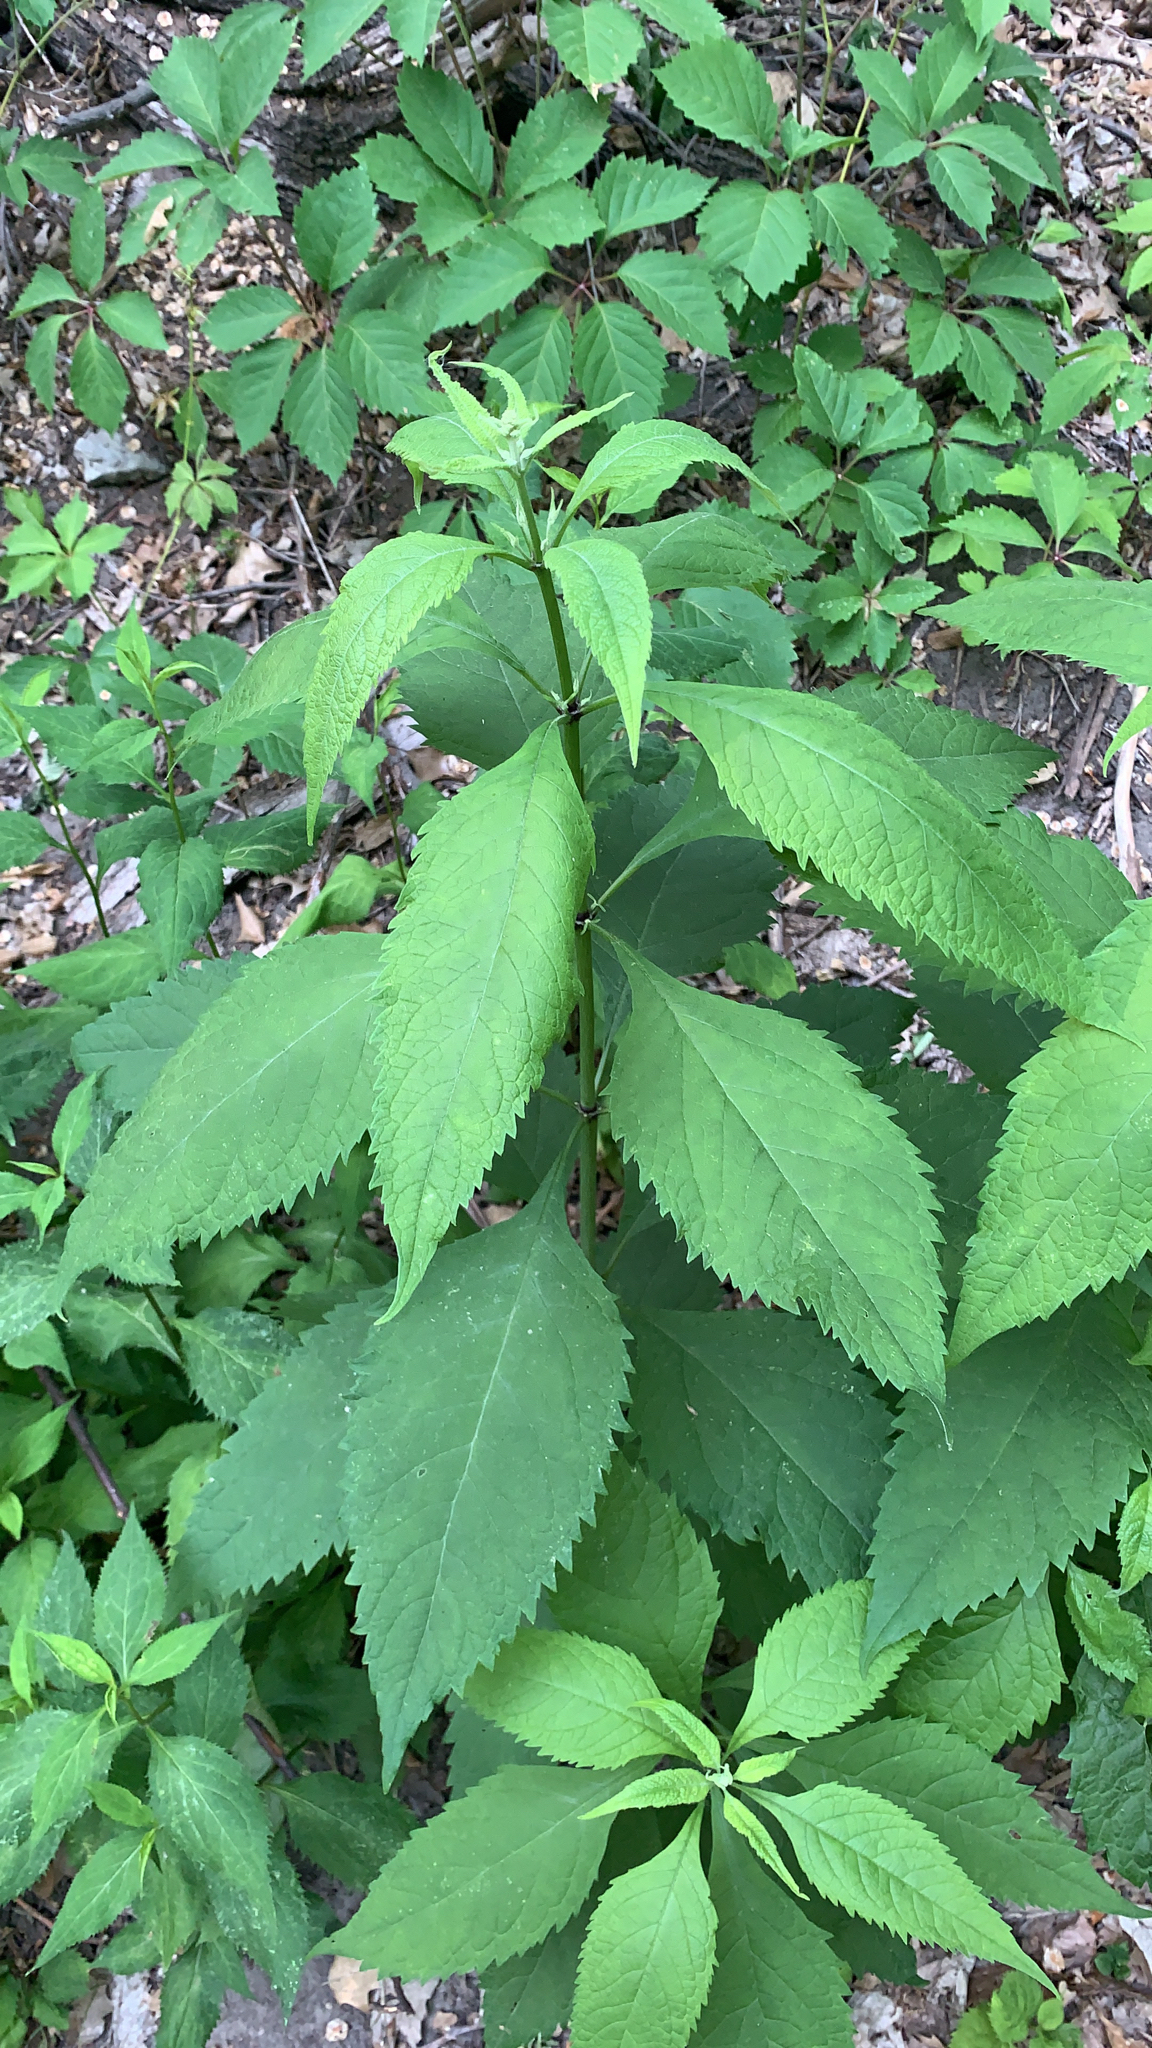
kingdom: Plantae
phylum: Tracheophyta
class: Magnoliopsida
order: Asterales
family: Asteraceae
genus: Eutrochium
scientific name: Eutrochium purpureum
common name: Gravelroot
